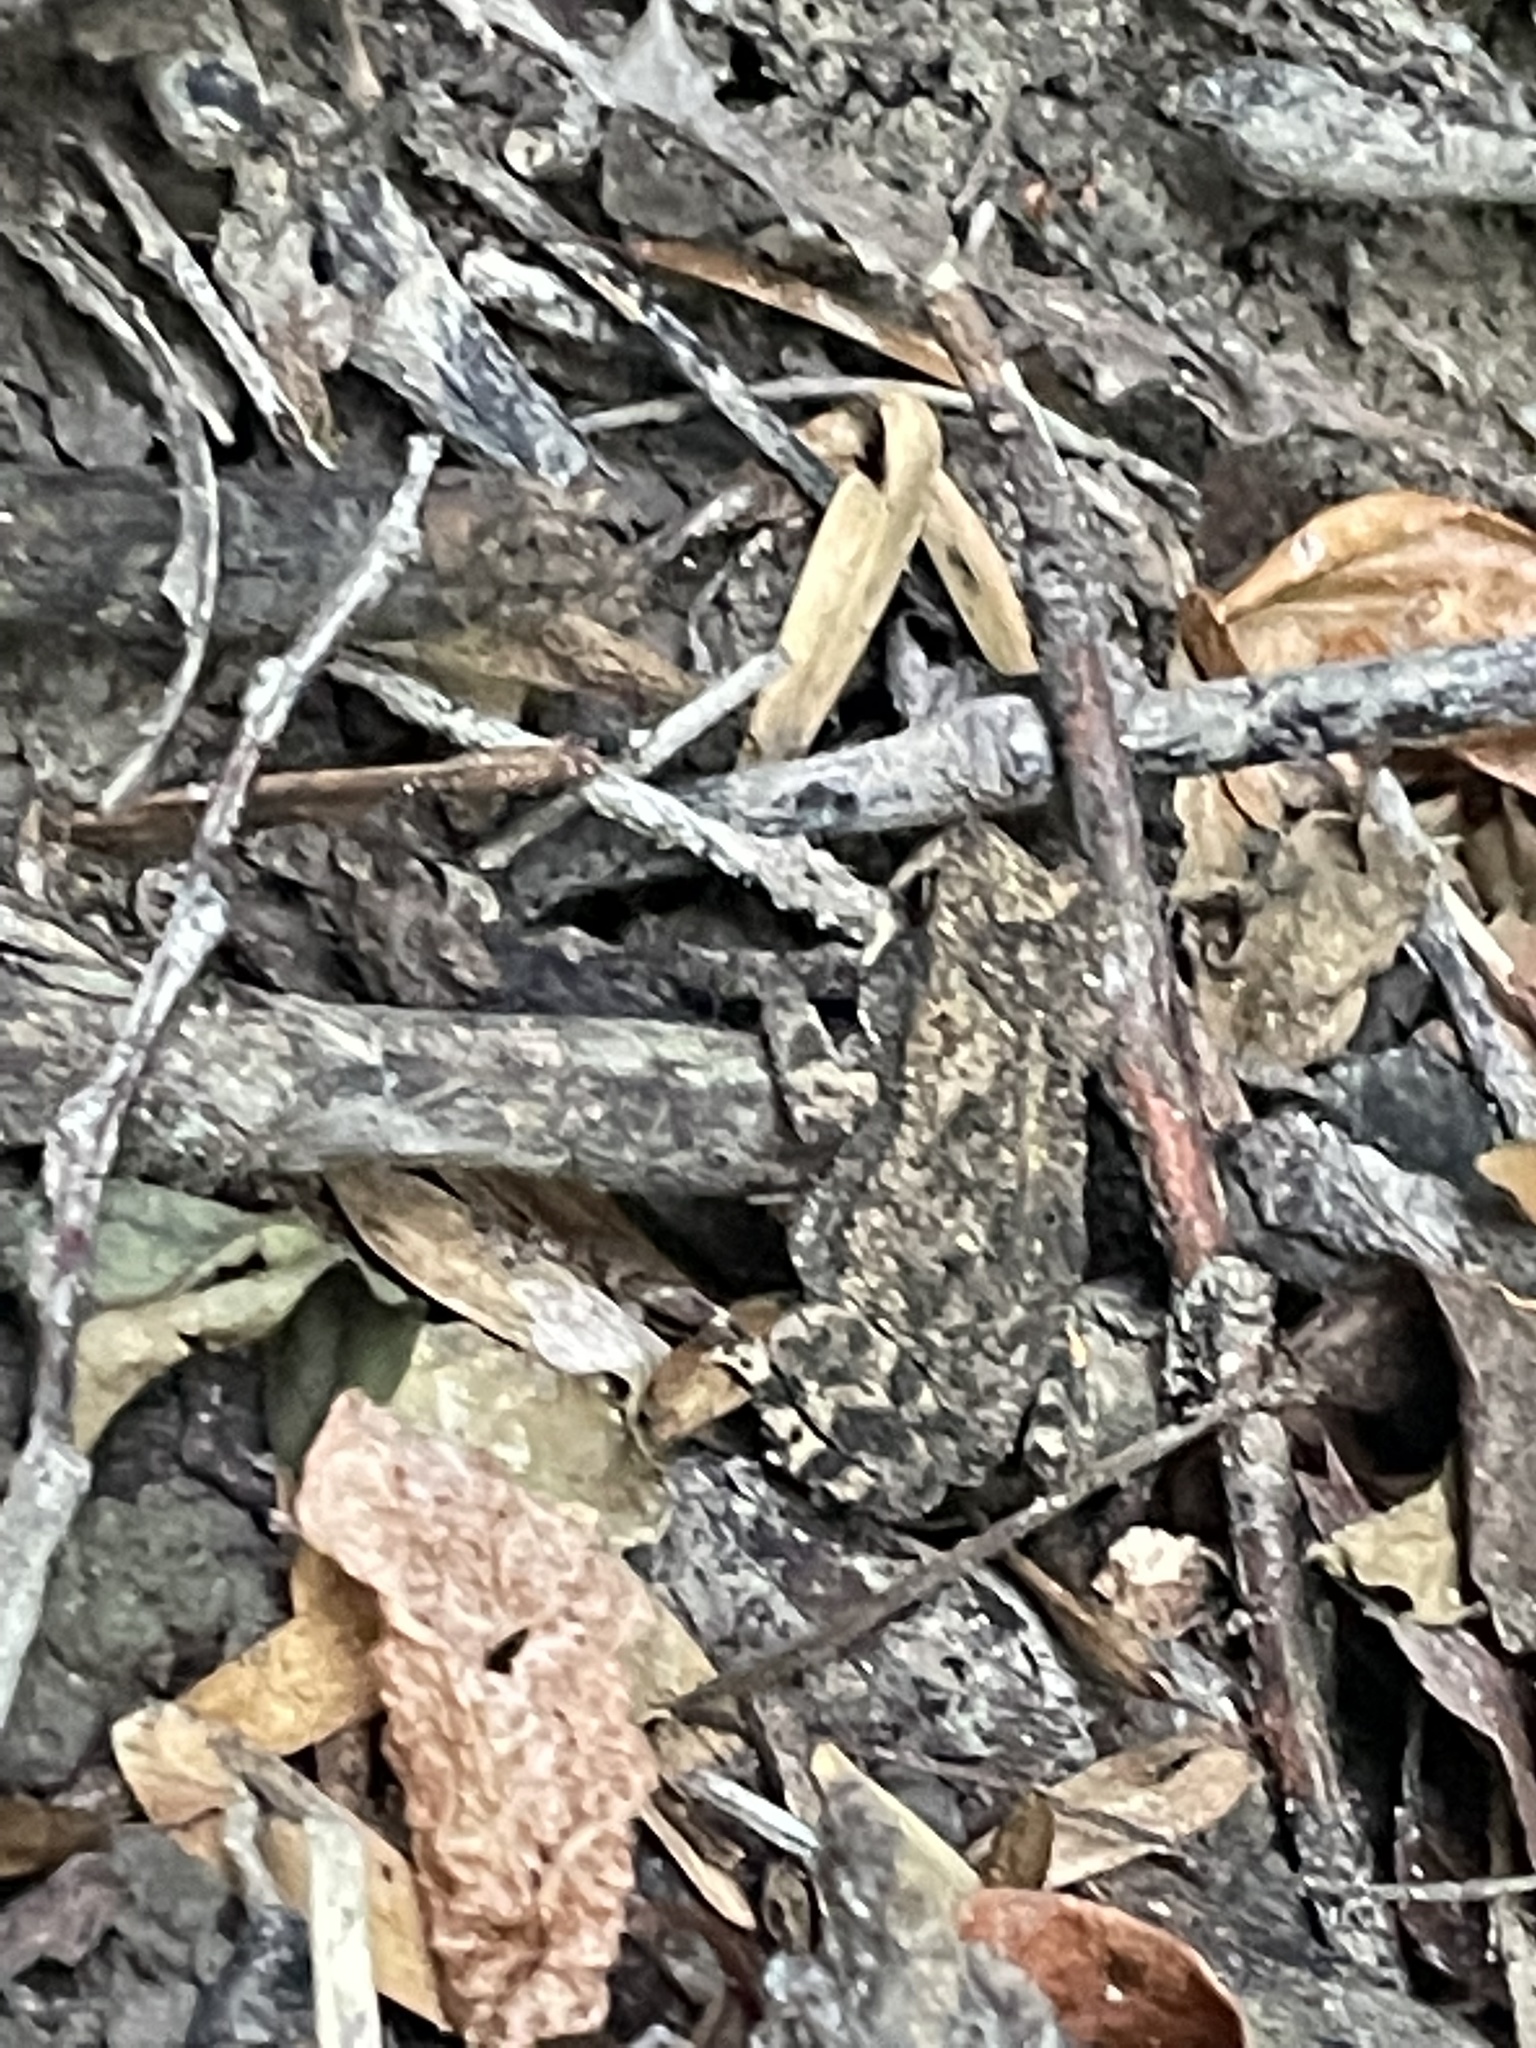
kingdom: Animalia
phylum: Chordata
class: Amphibia
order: Anura
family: Bufonidae
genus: Incilius
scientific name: Incilius nebulifer
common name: Gulf coast toad
